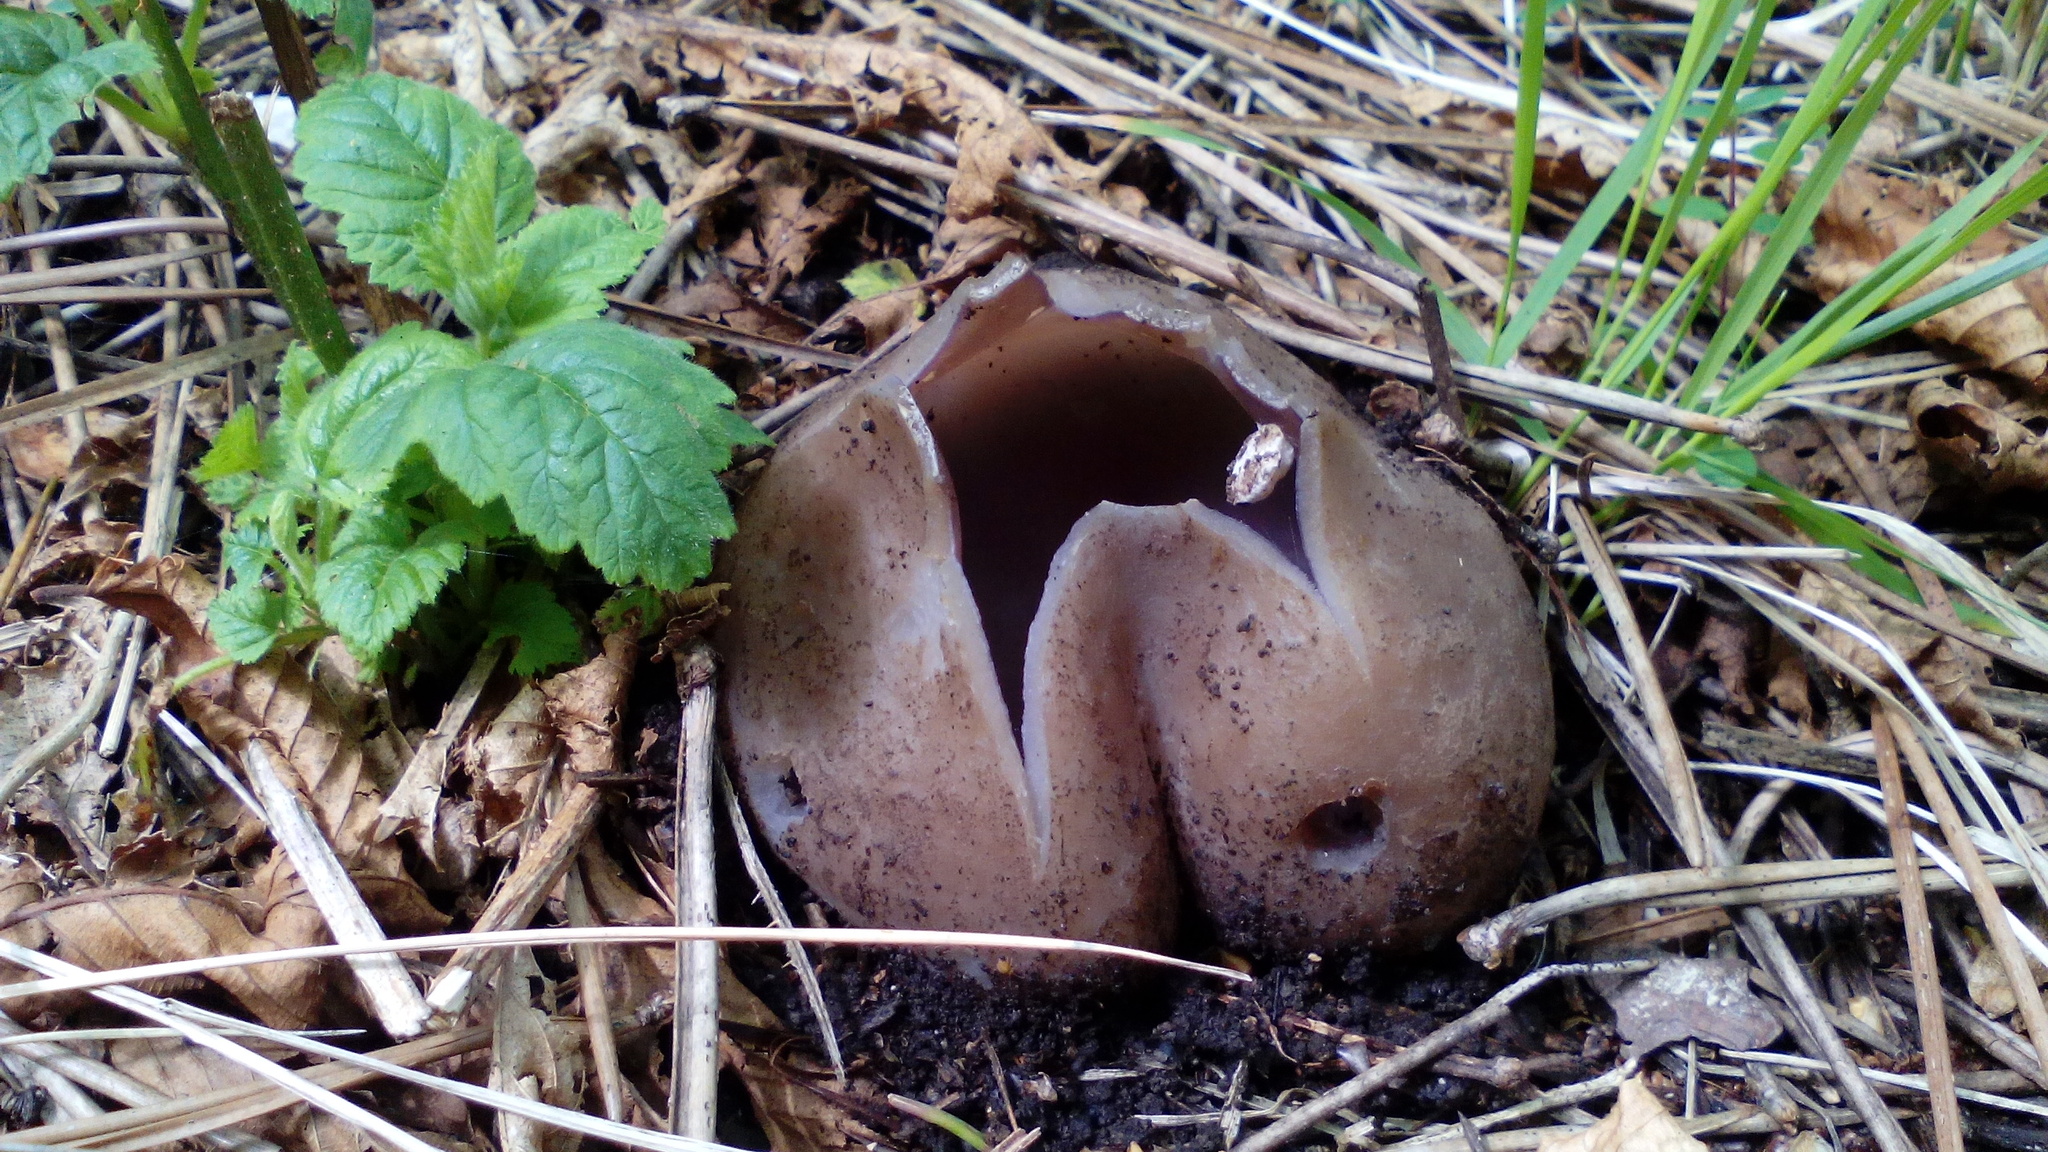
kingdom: Fungi
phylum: Ascomycota
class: Pezizomycetes
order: Pezizales
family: Pezizaceae
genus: Sarcosphaera
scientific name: Sarcosphaera coronaria
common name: Violet crowncup
